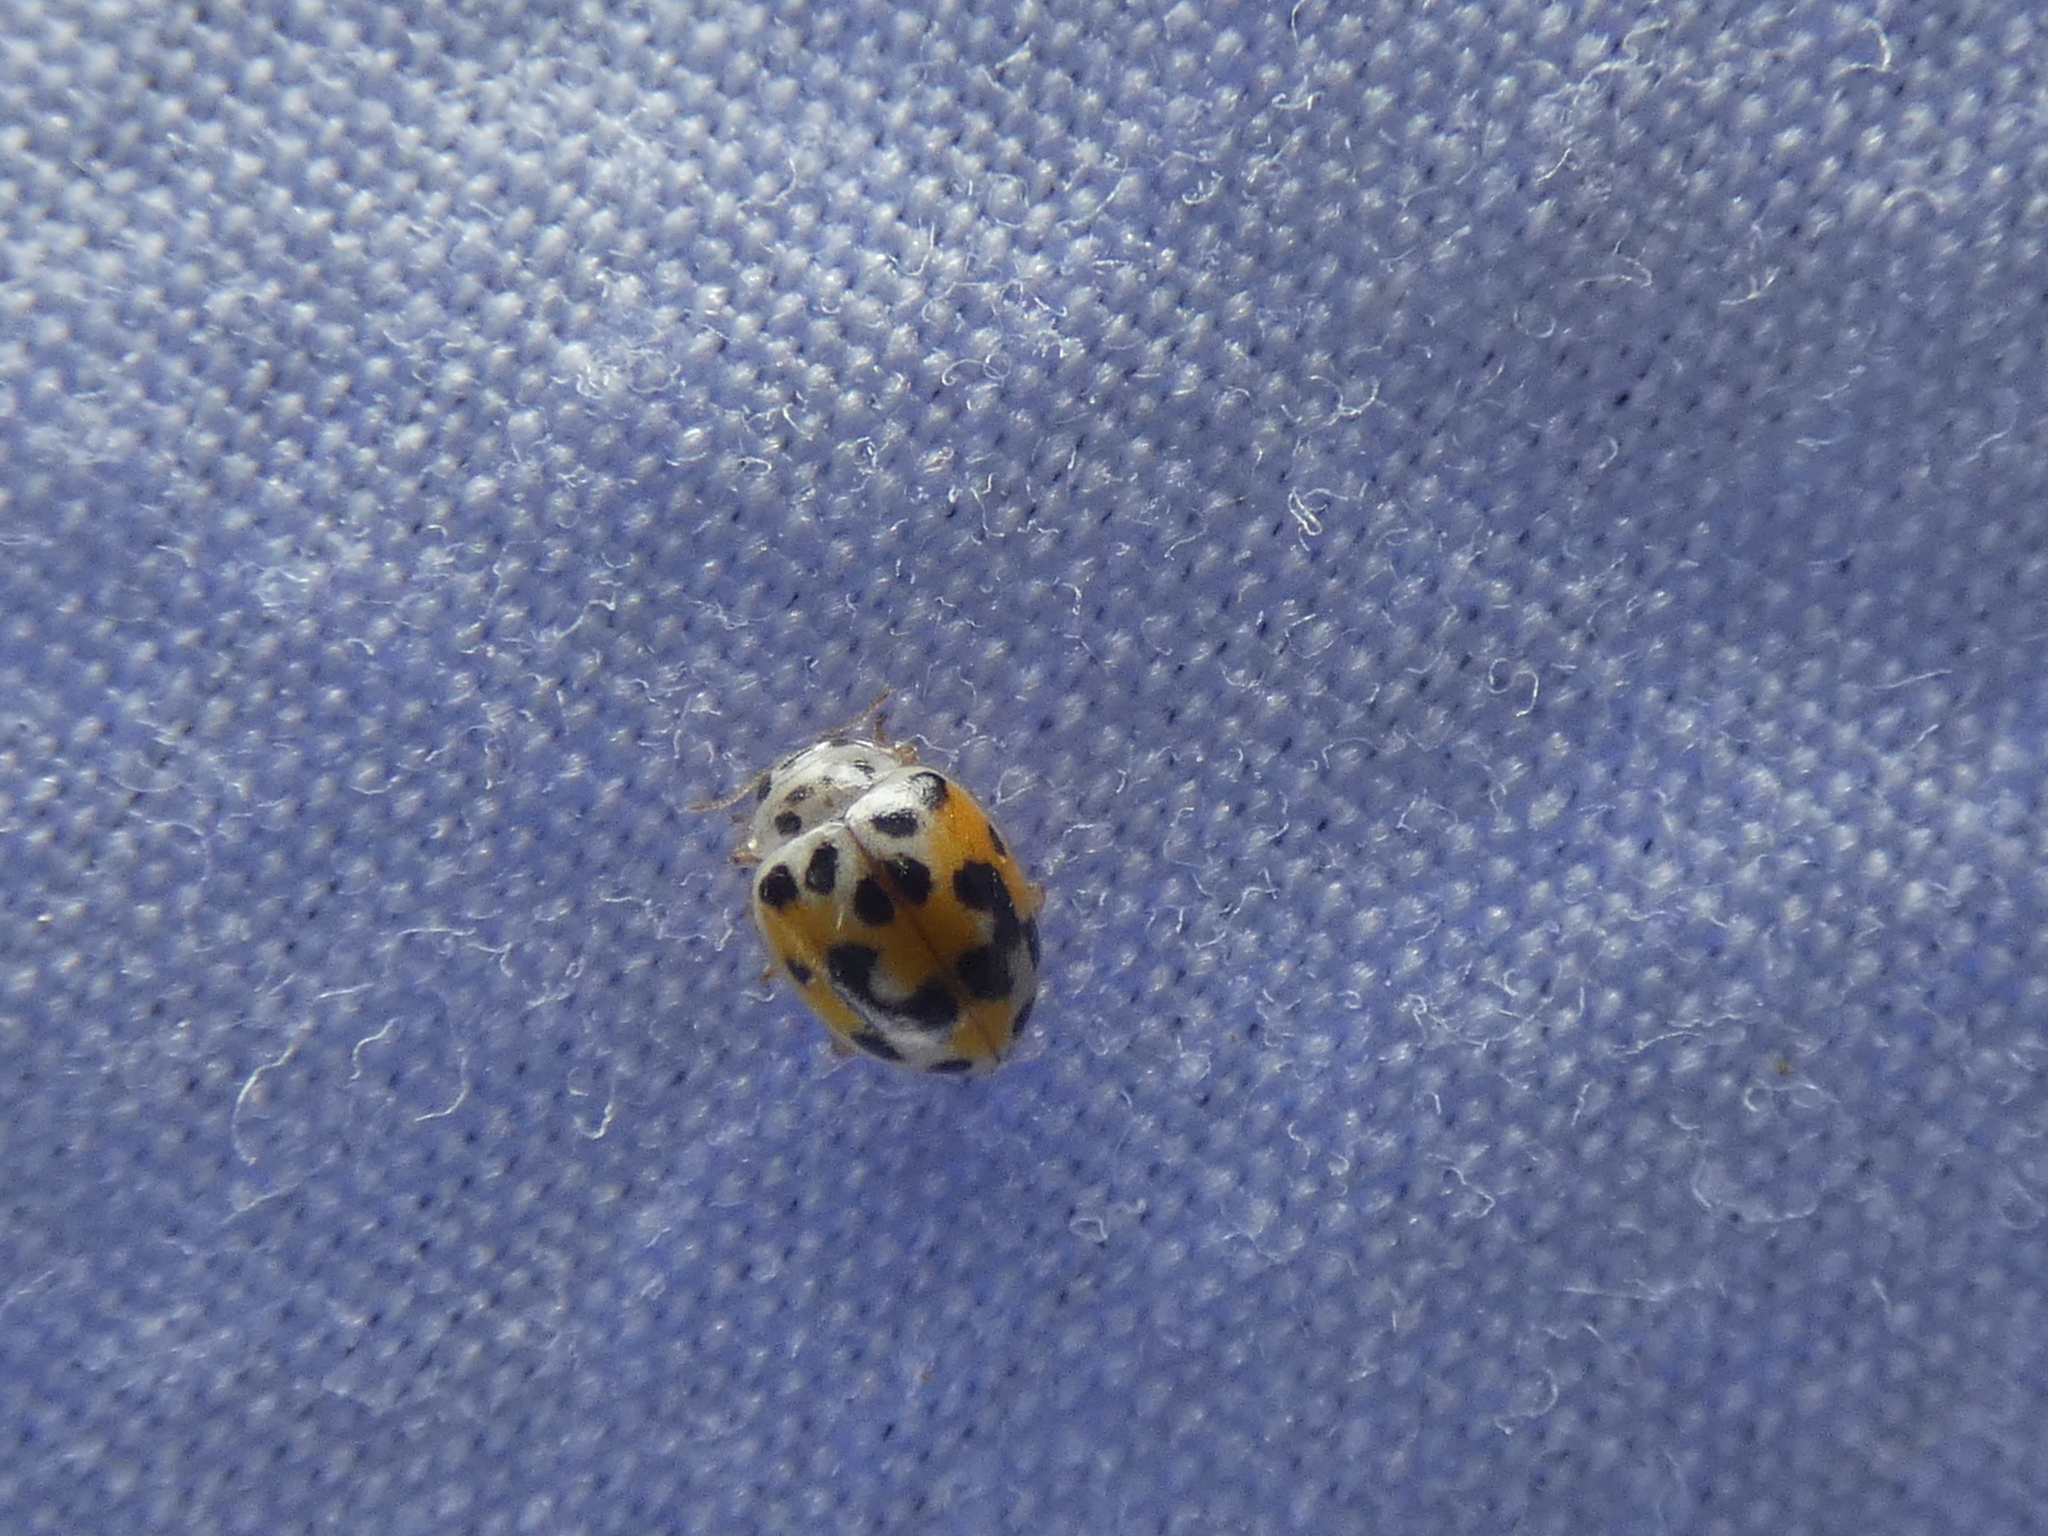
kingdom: Animalia
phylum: Arthropoda
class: Insecta
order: Coleoptera
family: Coccinellidae
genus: Psyllobora
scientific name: Psyllobora vigintimaculata
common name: Ladybird beetle
